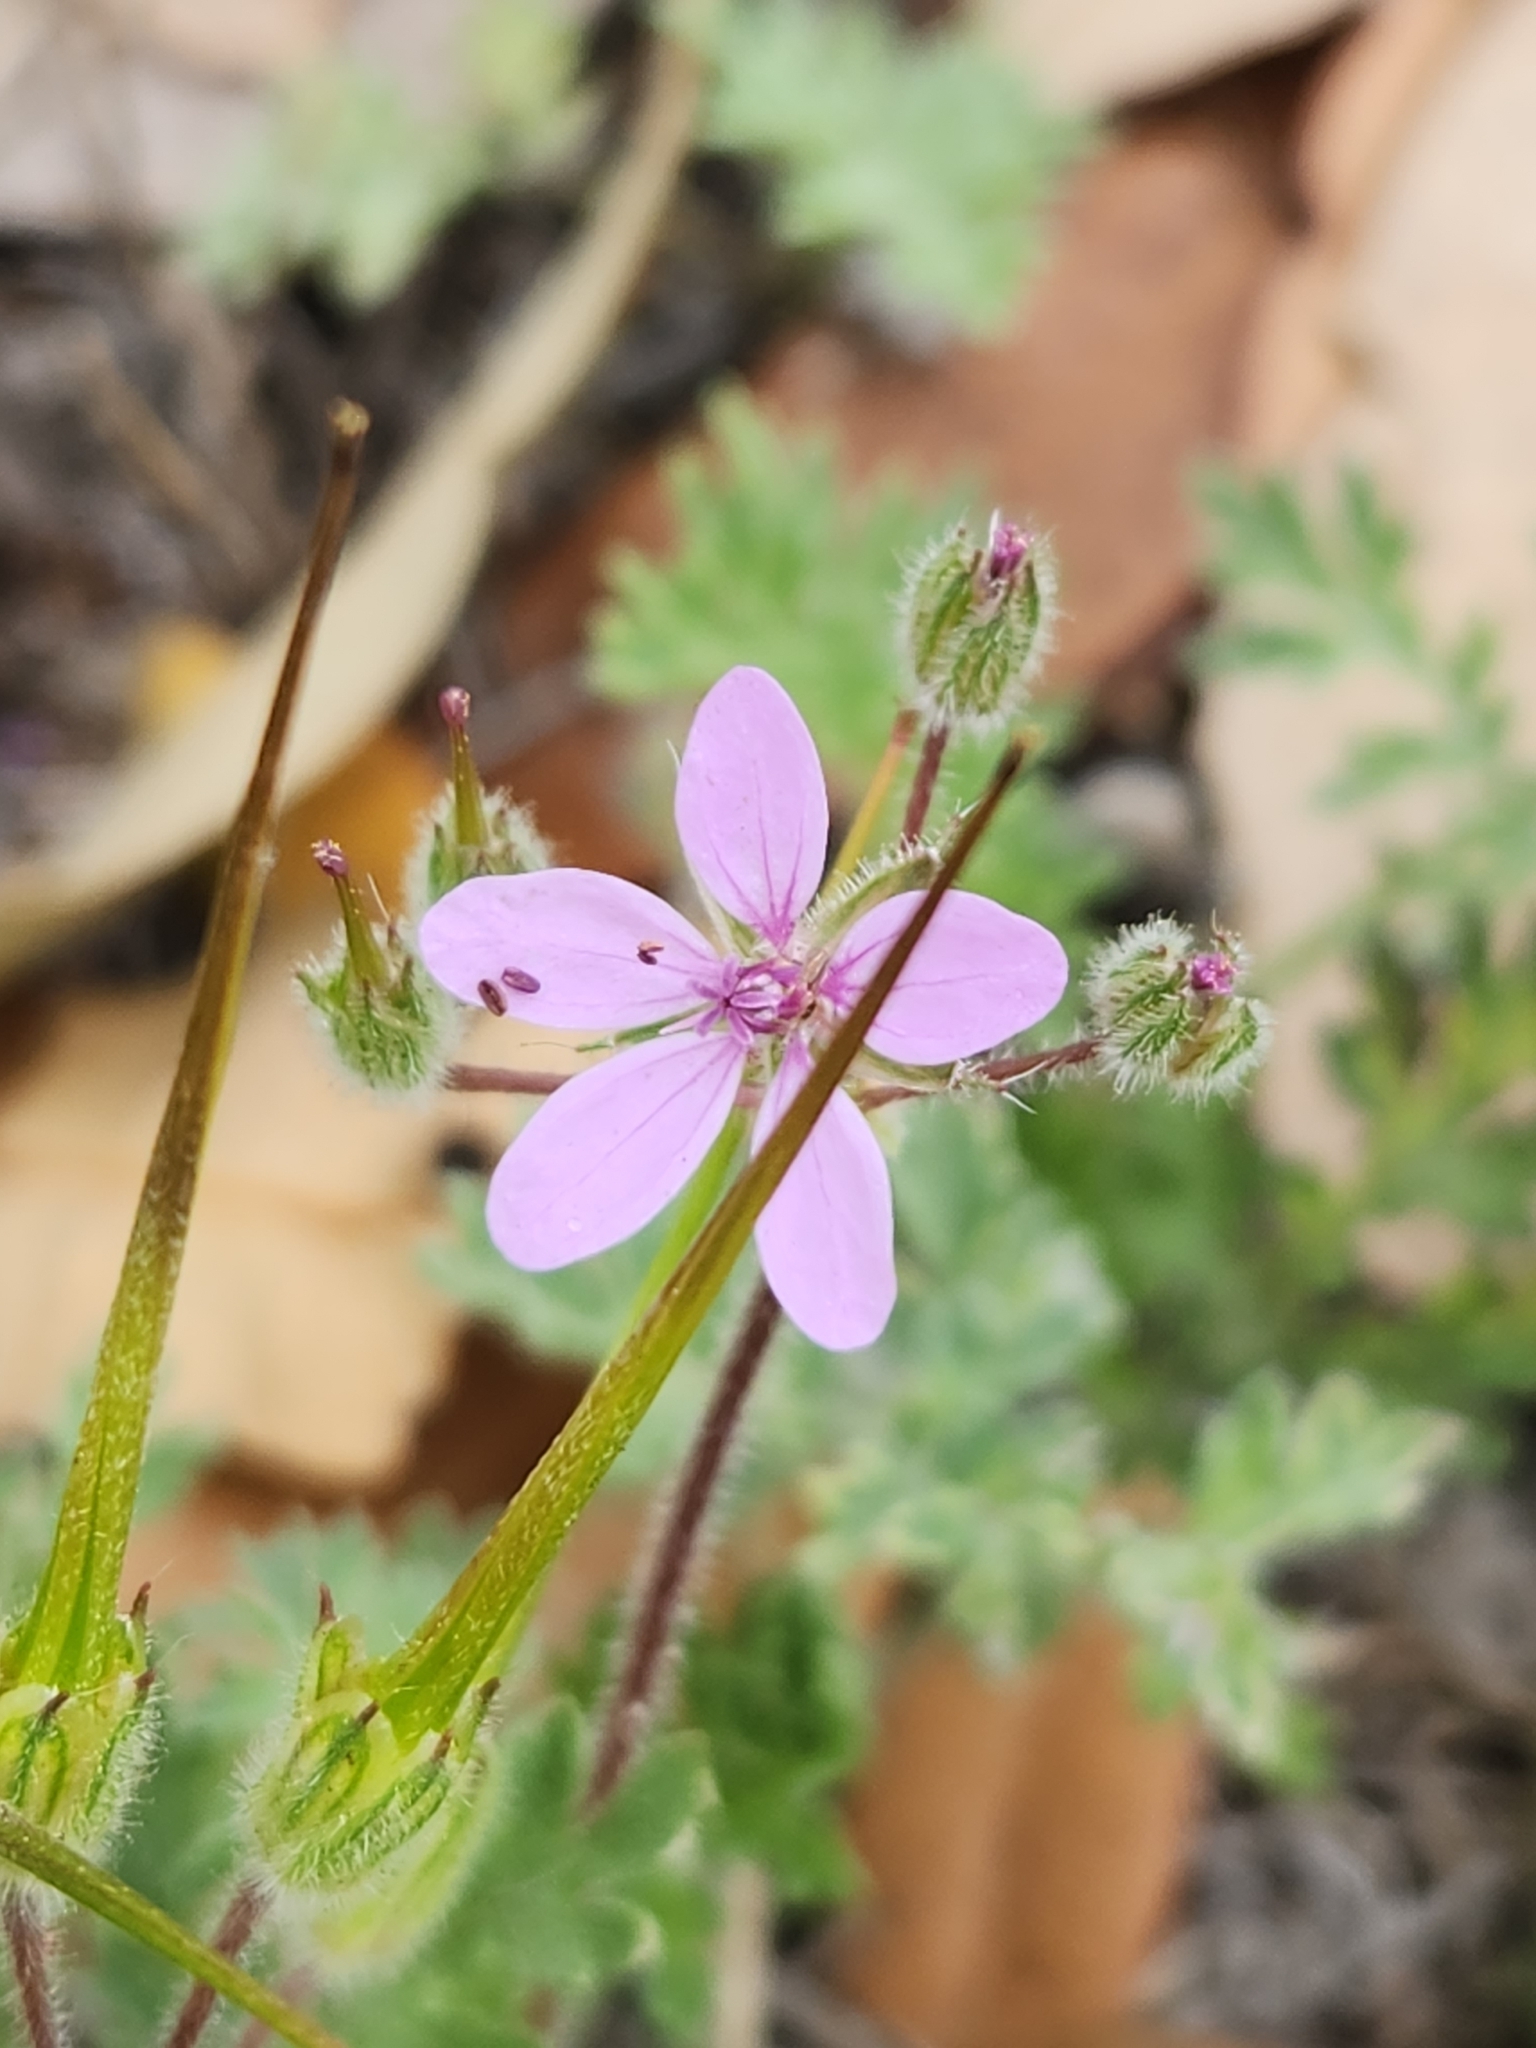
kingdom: Plantae
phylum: Tracheophyta
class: Magnoliopsida
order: Geraniales
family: Geraniaceae
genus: Erodium
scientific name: Erodium cicutarium
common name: Common stork's-bill
